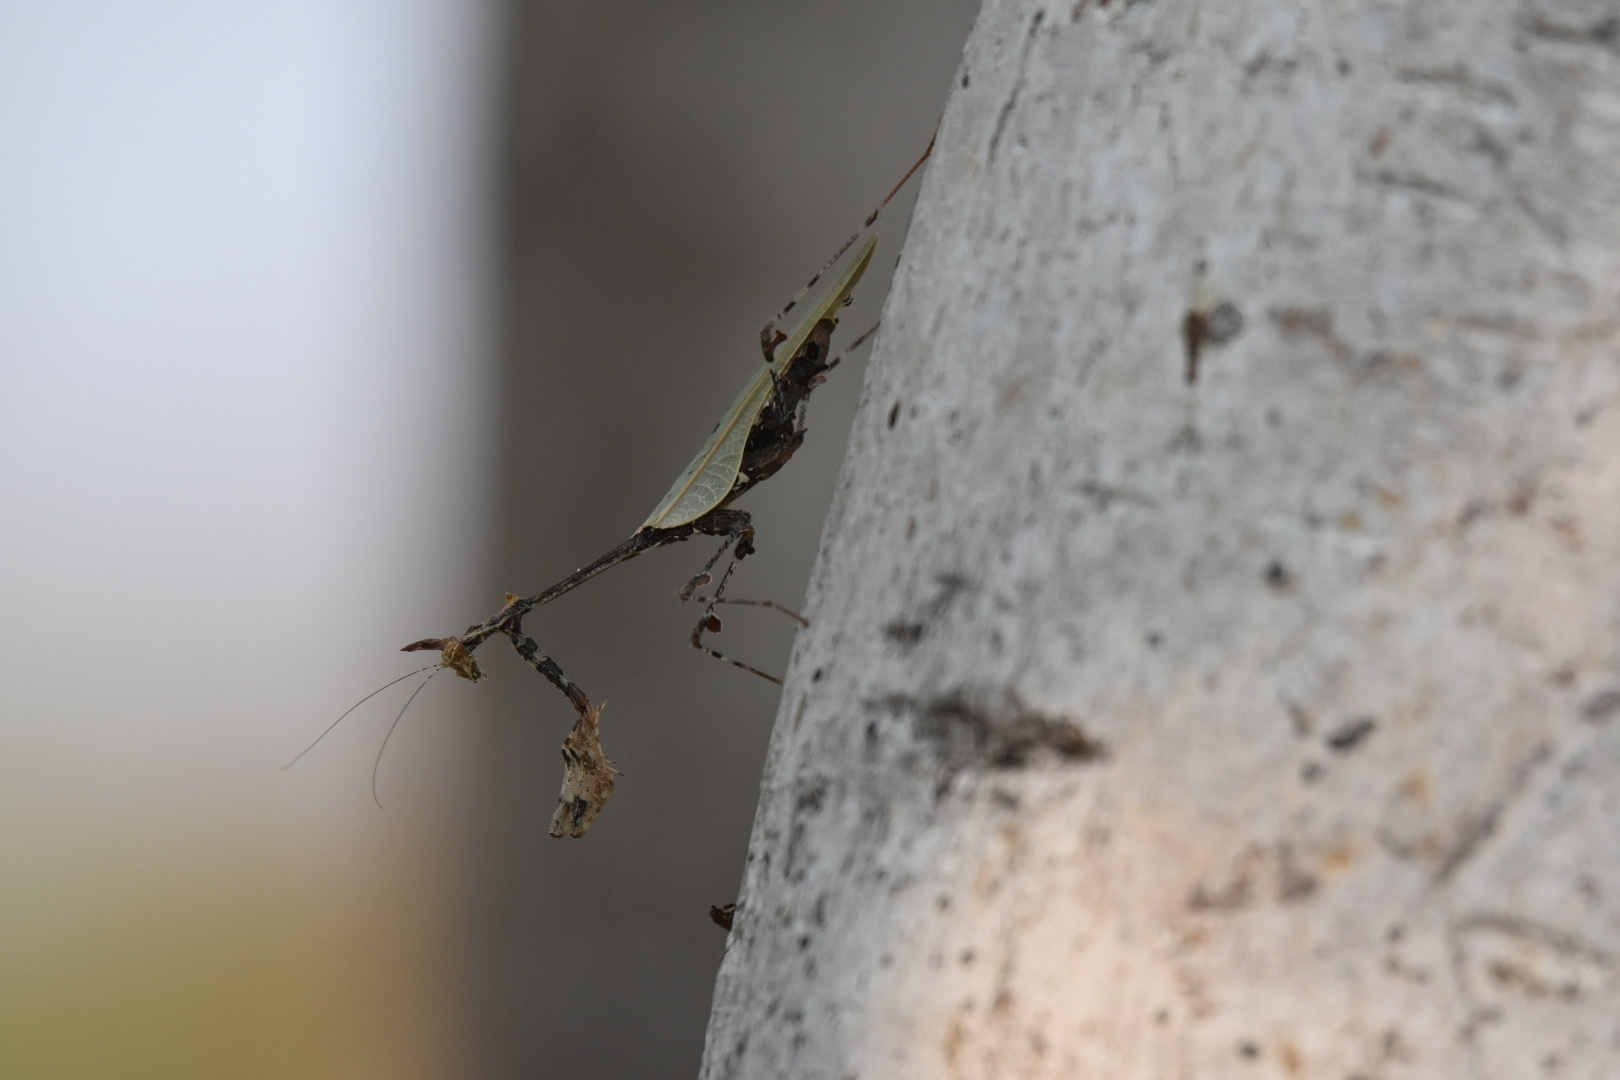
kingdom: Animalia
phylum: Arthropoda
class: Insecta
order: Mantodea
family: Hymenopodidae
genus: Sibylla
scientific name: Sibylla pretiosa
